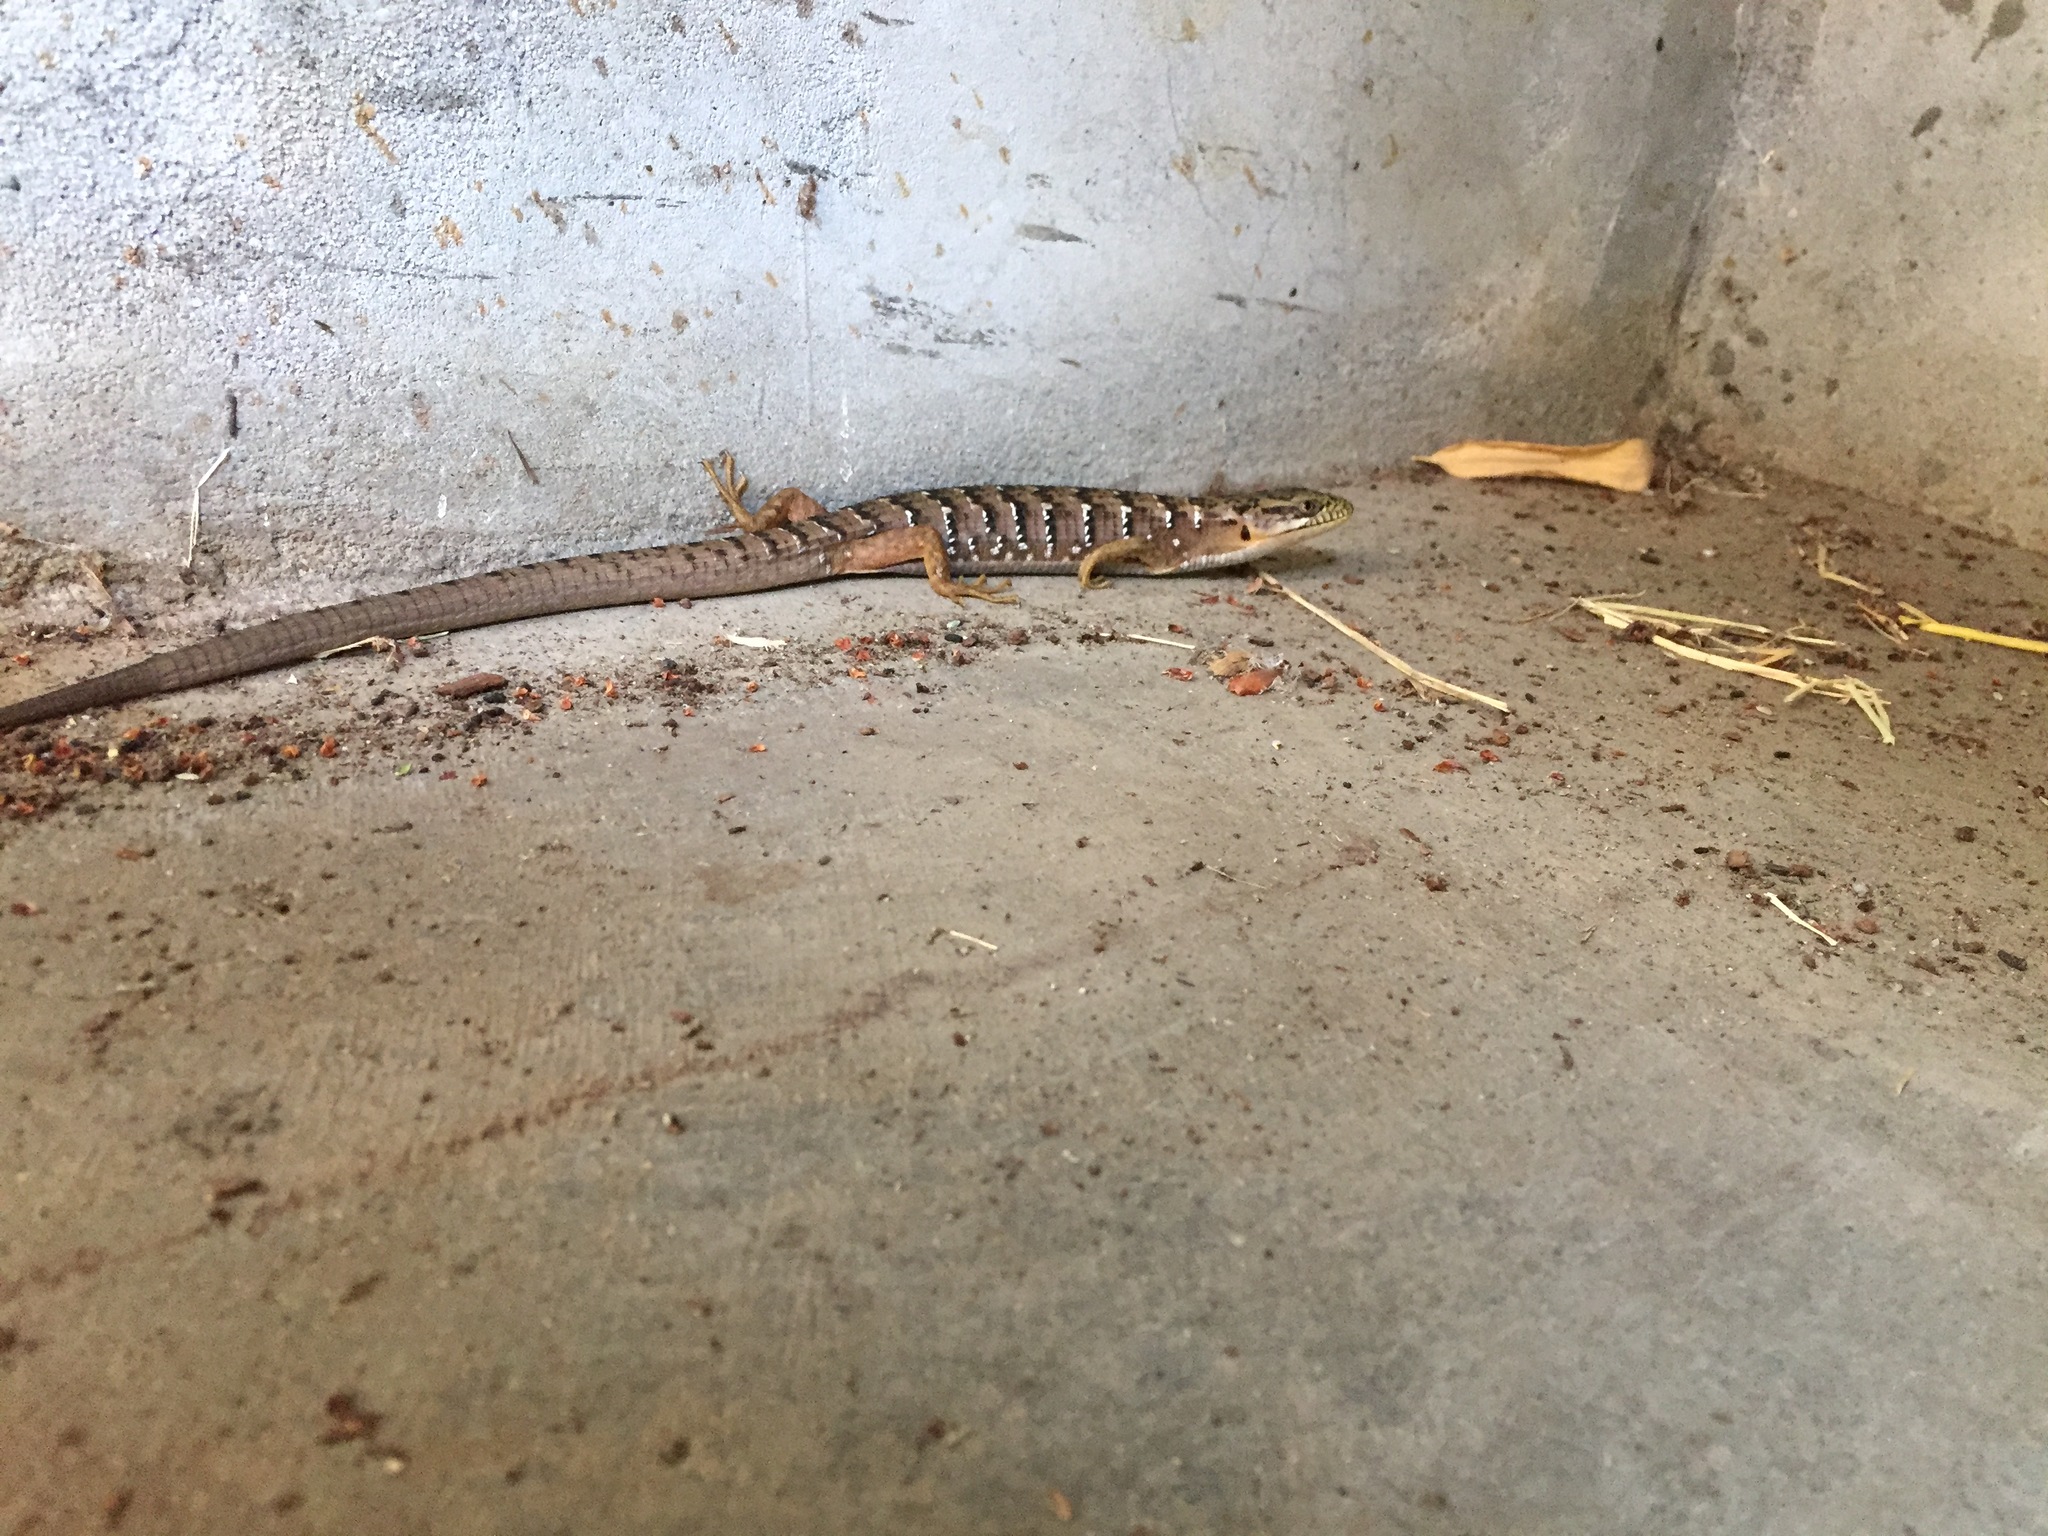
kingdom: Animalia
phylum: Chordata
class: Squamata
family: Anguidae
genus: Elgaria
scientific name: Elgaria multicarinata
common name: Southern alligator lizard
